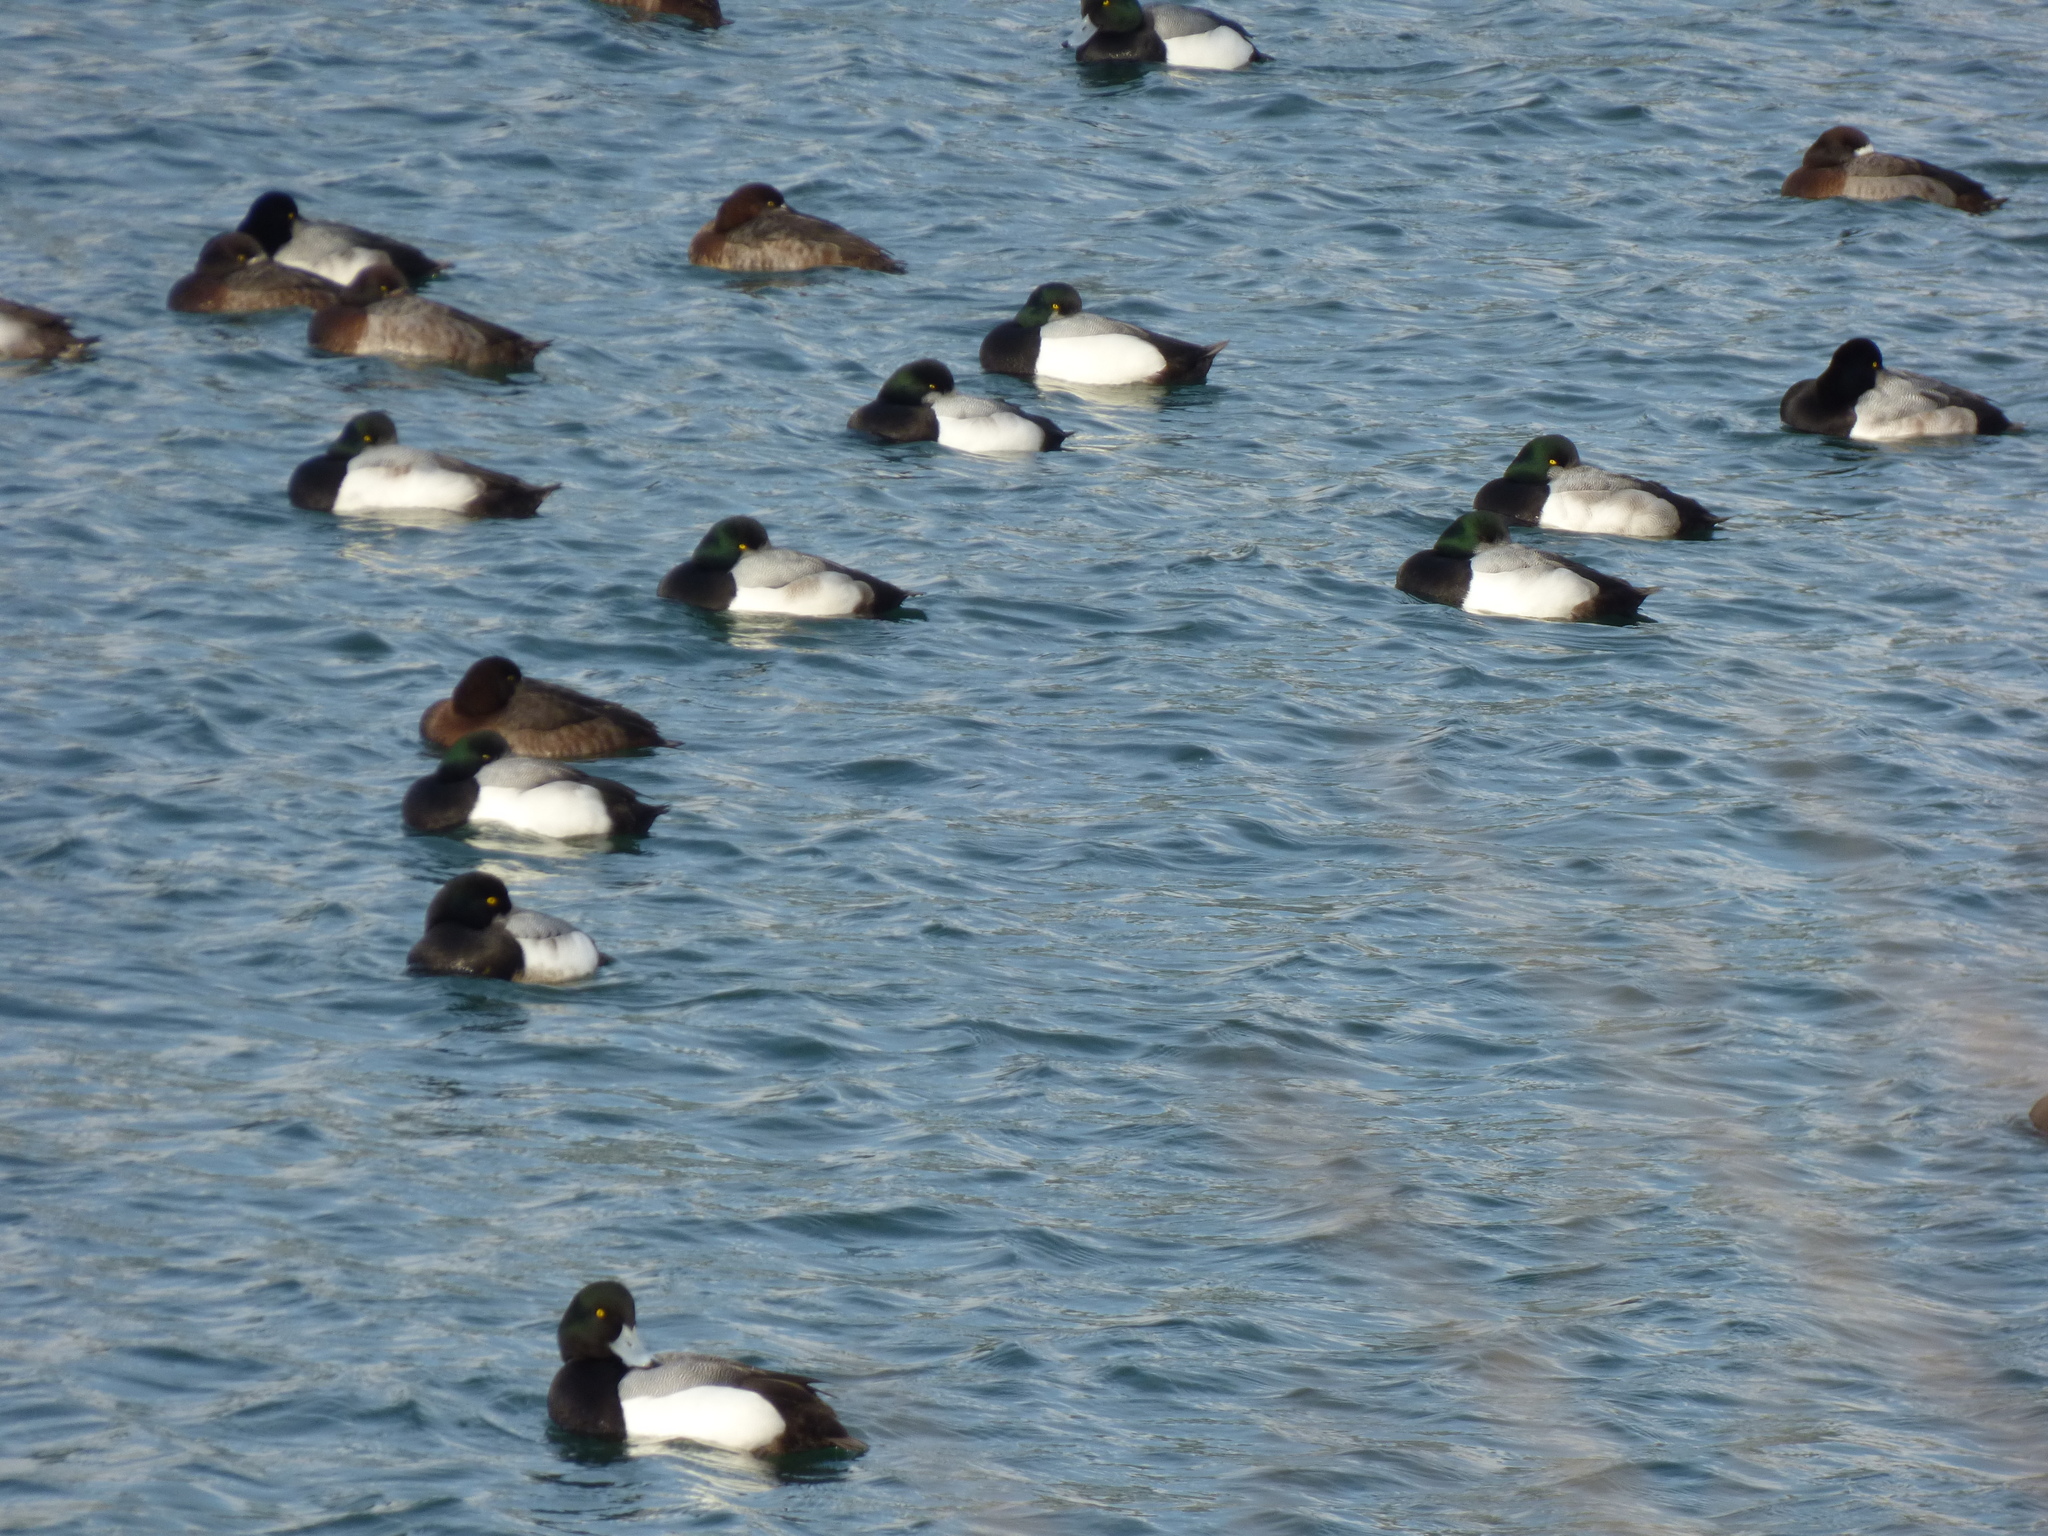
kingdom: Animalia
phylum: Chordata
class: Aves
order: Anseriformes
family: Anatidae
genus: Aythya
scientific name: Aythya marila
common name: Greater scaup
